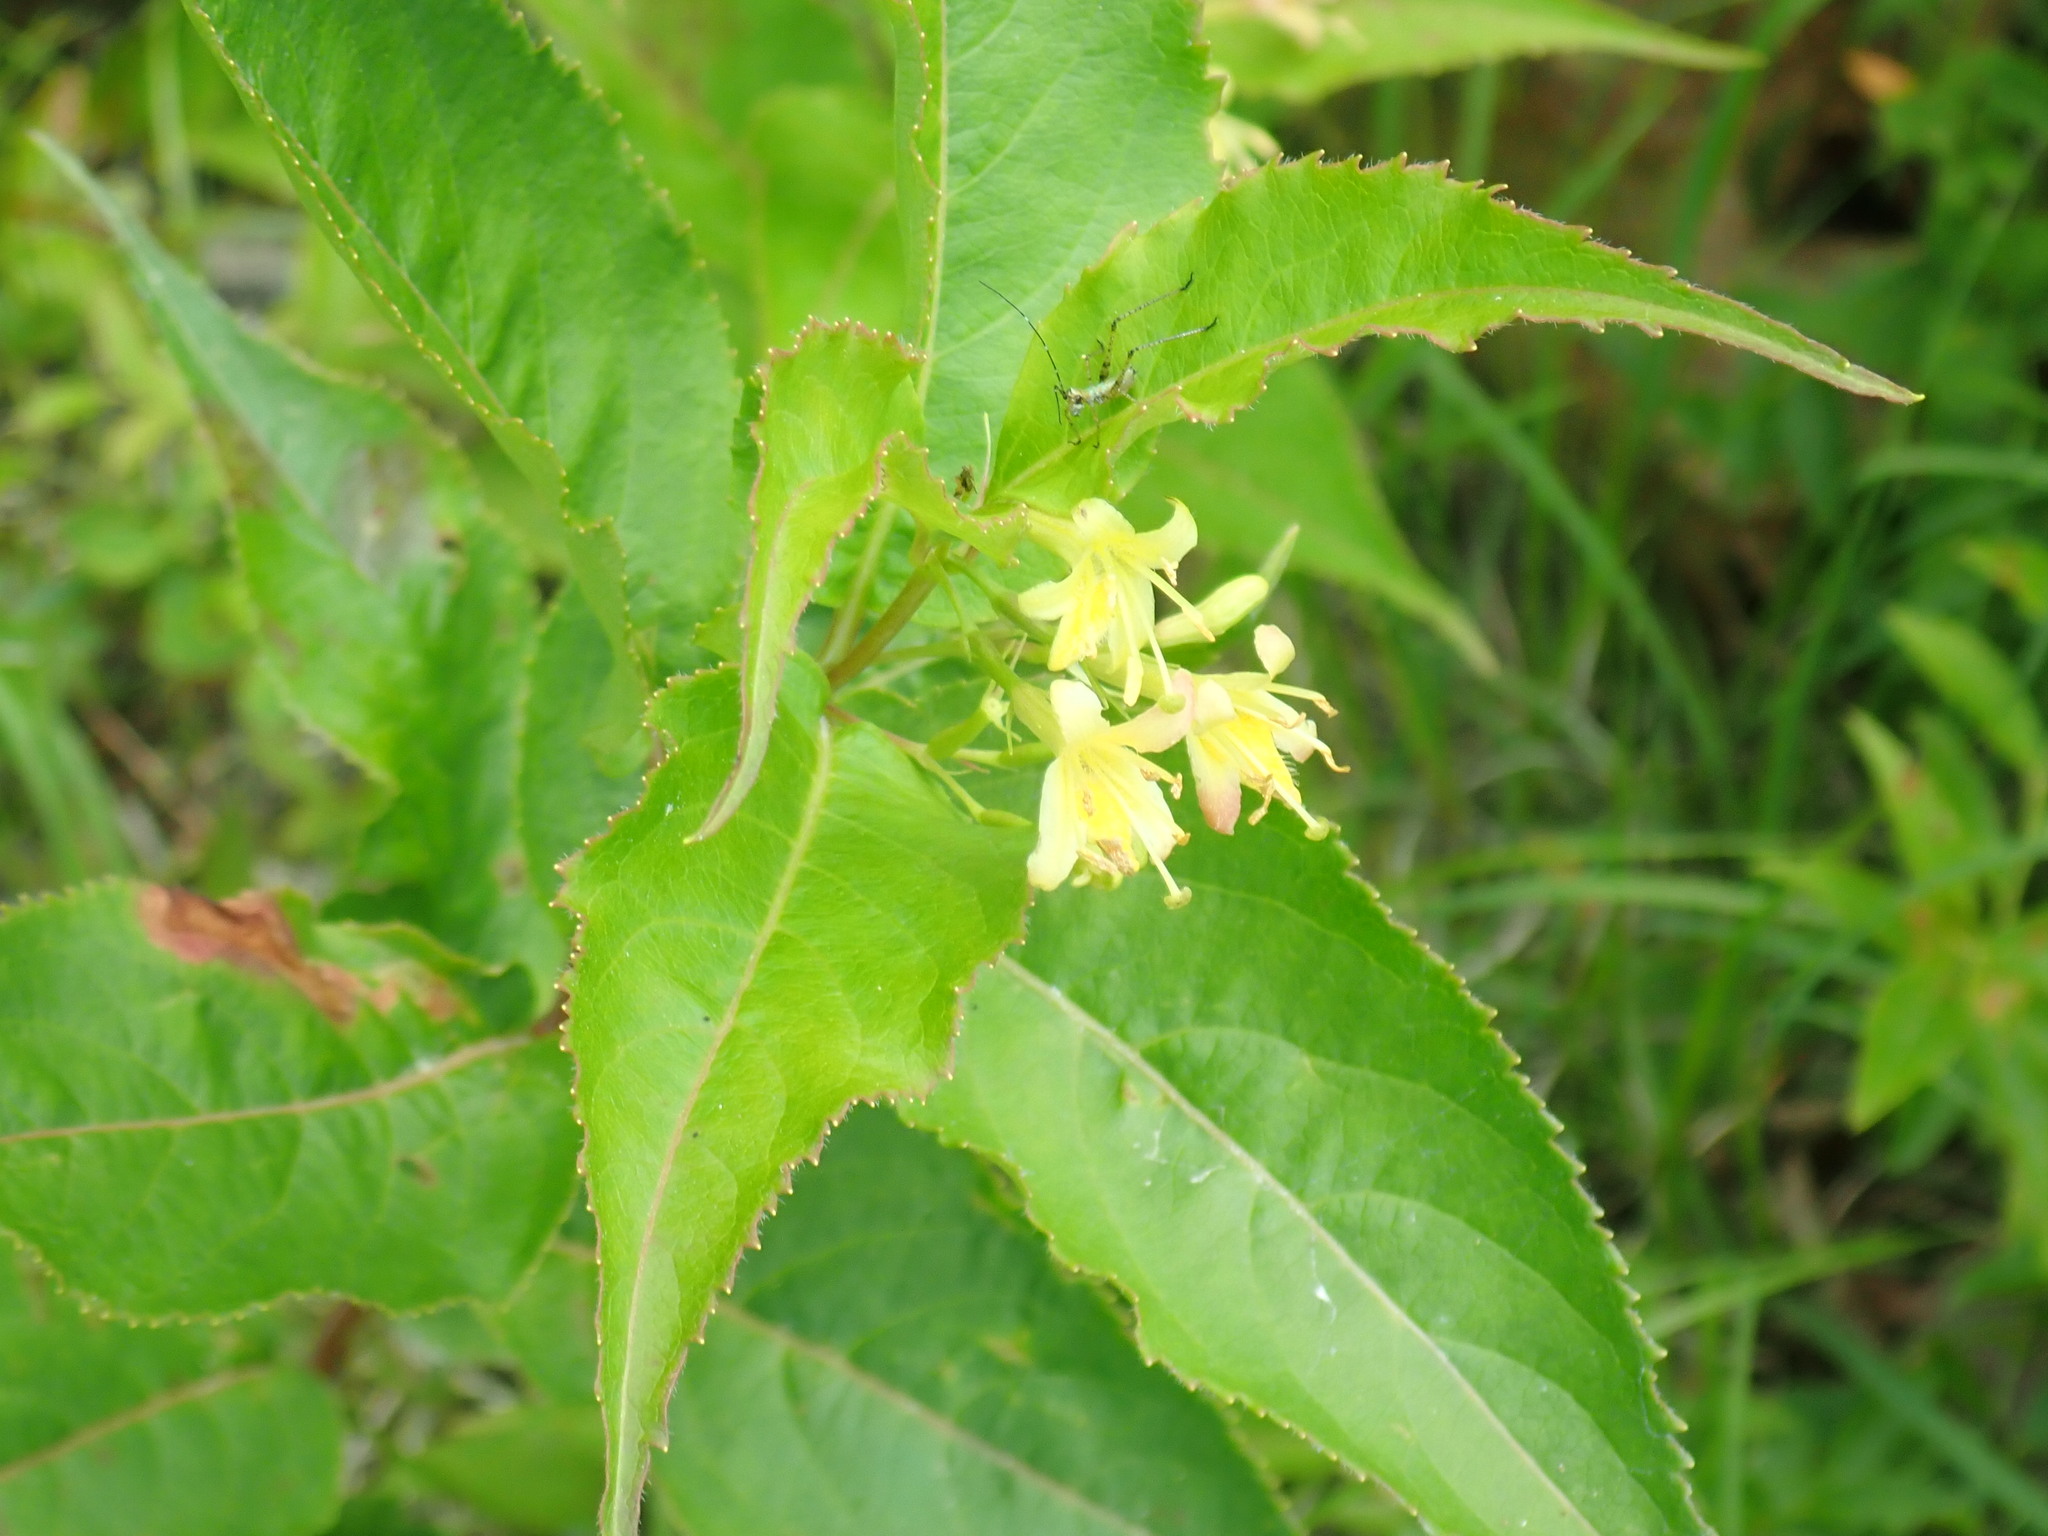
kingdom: Plantae
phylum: Tracheophyta
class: Magnoliopsida
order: Dipsacales
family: Caprifoliaceae
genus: Diervilla
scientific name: Diervilla lonicera
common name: Bush-honeysuckle
